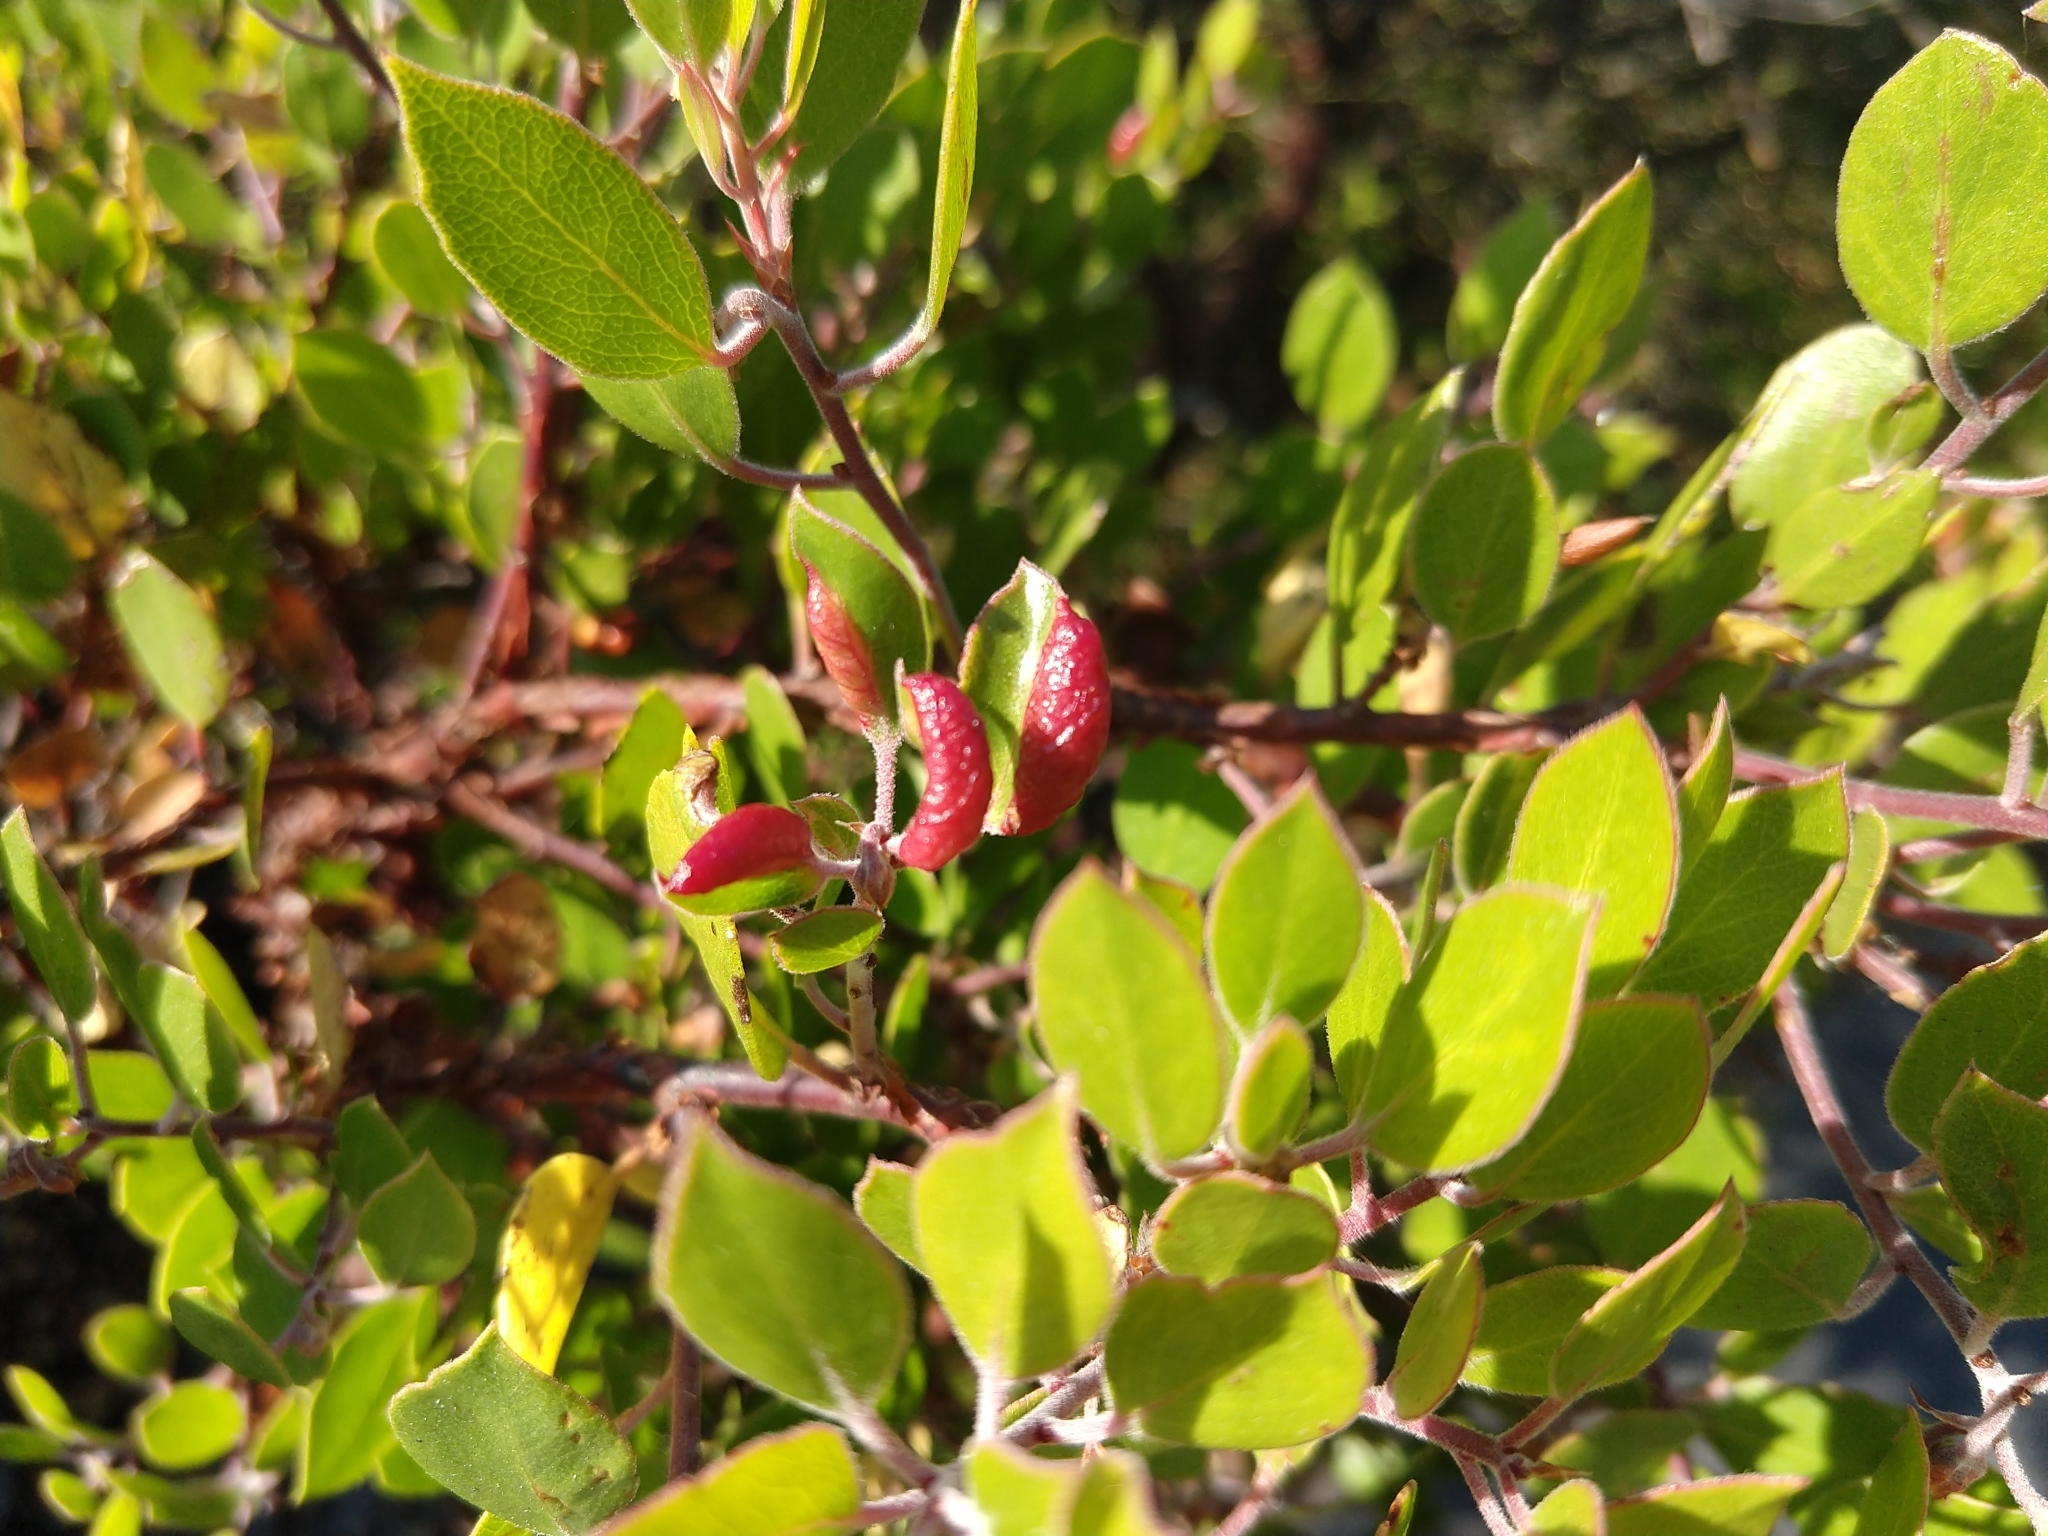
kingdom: Animalia
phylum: Arthropoda
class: Insecta
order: Hemiptera
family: Aphididae
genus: Tamalia
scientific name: Tamalia coweni
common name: Manzanita leafgall aphid
